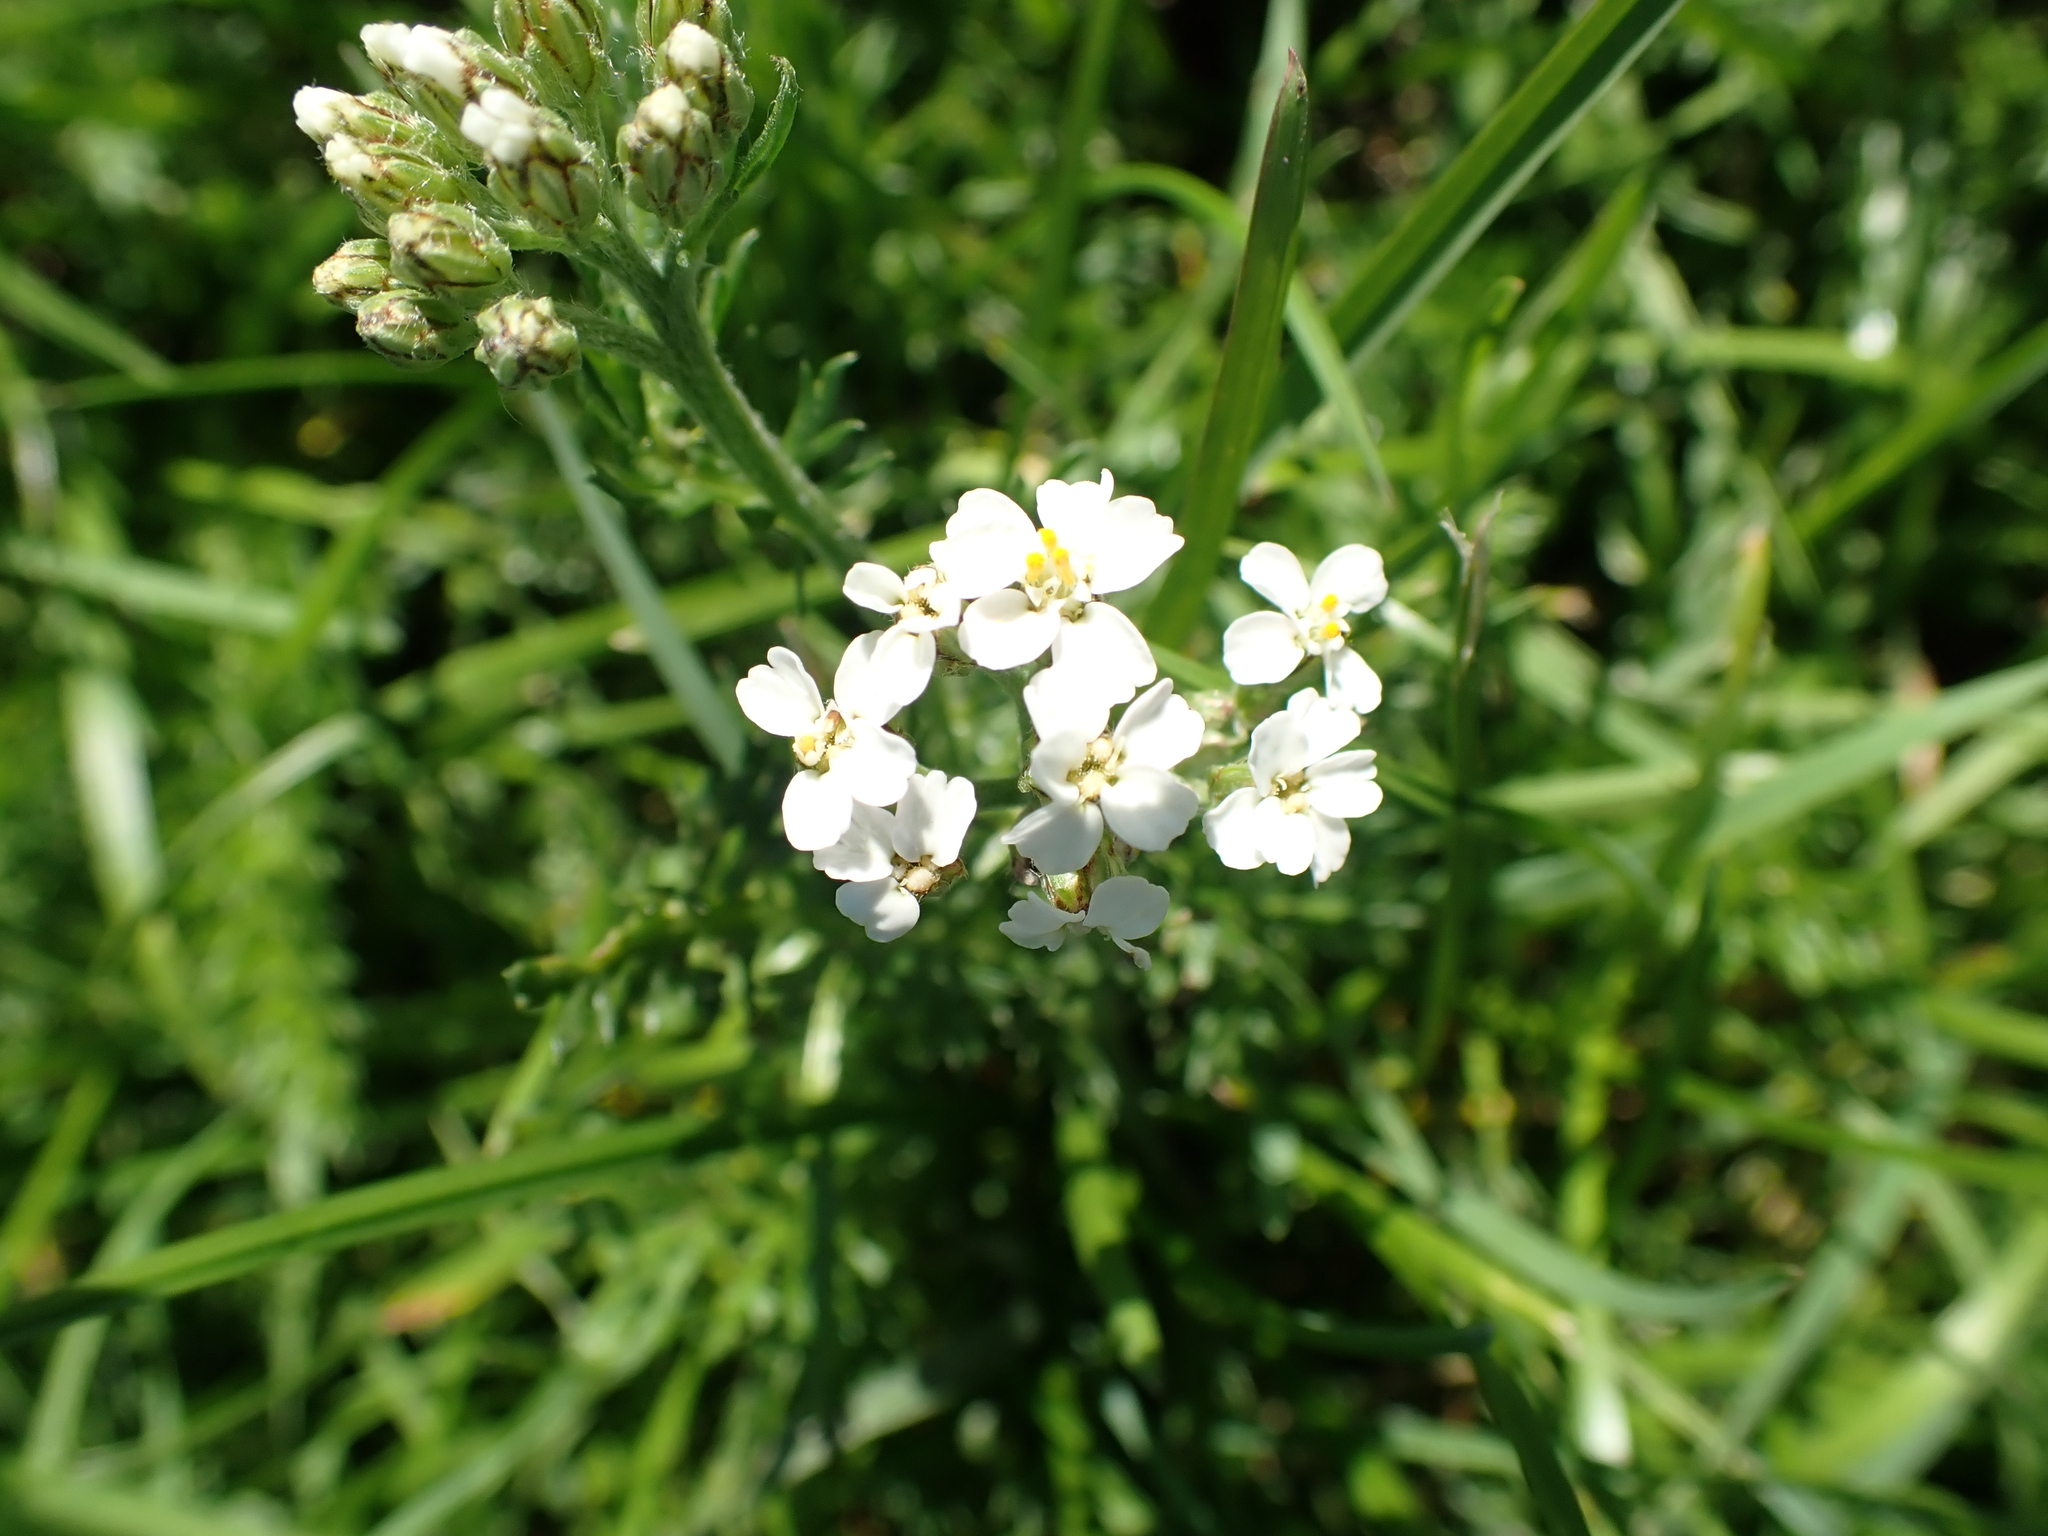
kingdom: Plantae
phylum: Tracheophyta
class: Magnoliopsida
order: Asterales
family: Asteraceae
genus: Achillea
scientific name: Achillea millefolium
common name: Yarrow
